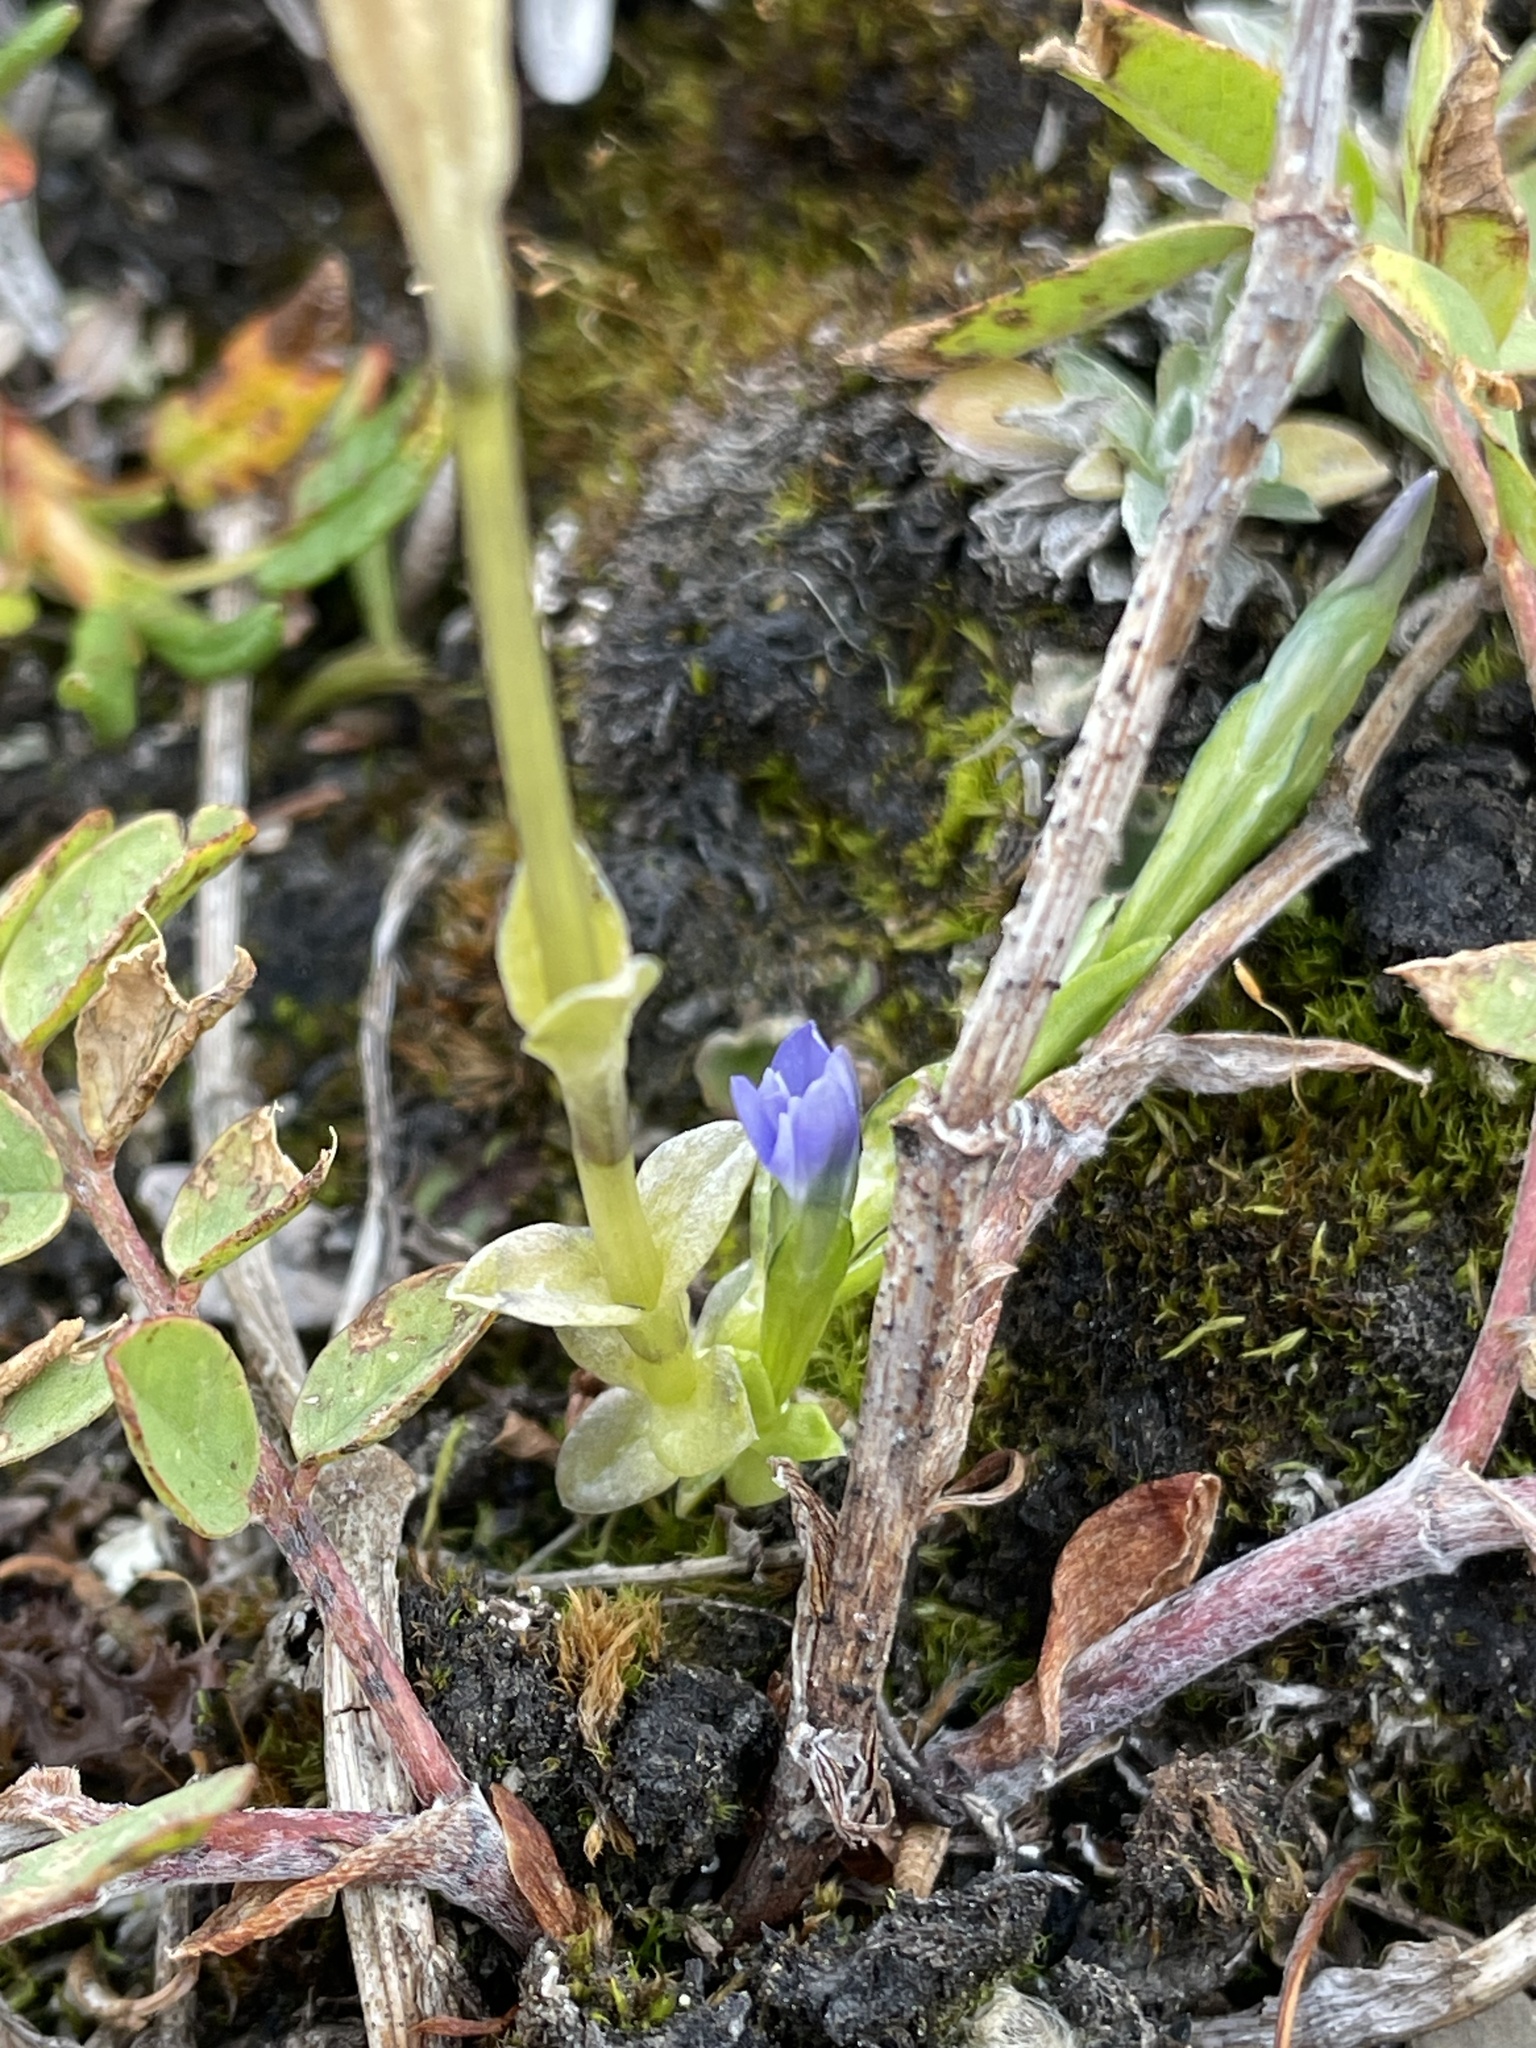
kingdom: Plantae
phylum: Tracheophyta
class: Magnoliopsida
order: Gentianales
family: Gentianaceae
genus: Gentiana
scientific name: Gentiana prostrata
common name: Moss gentian
